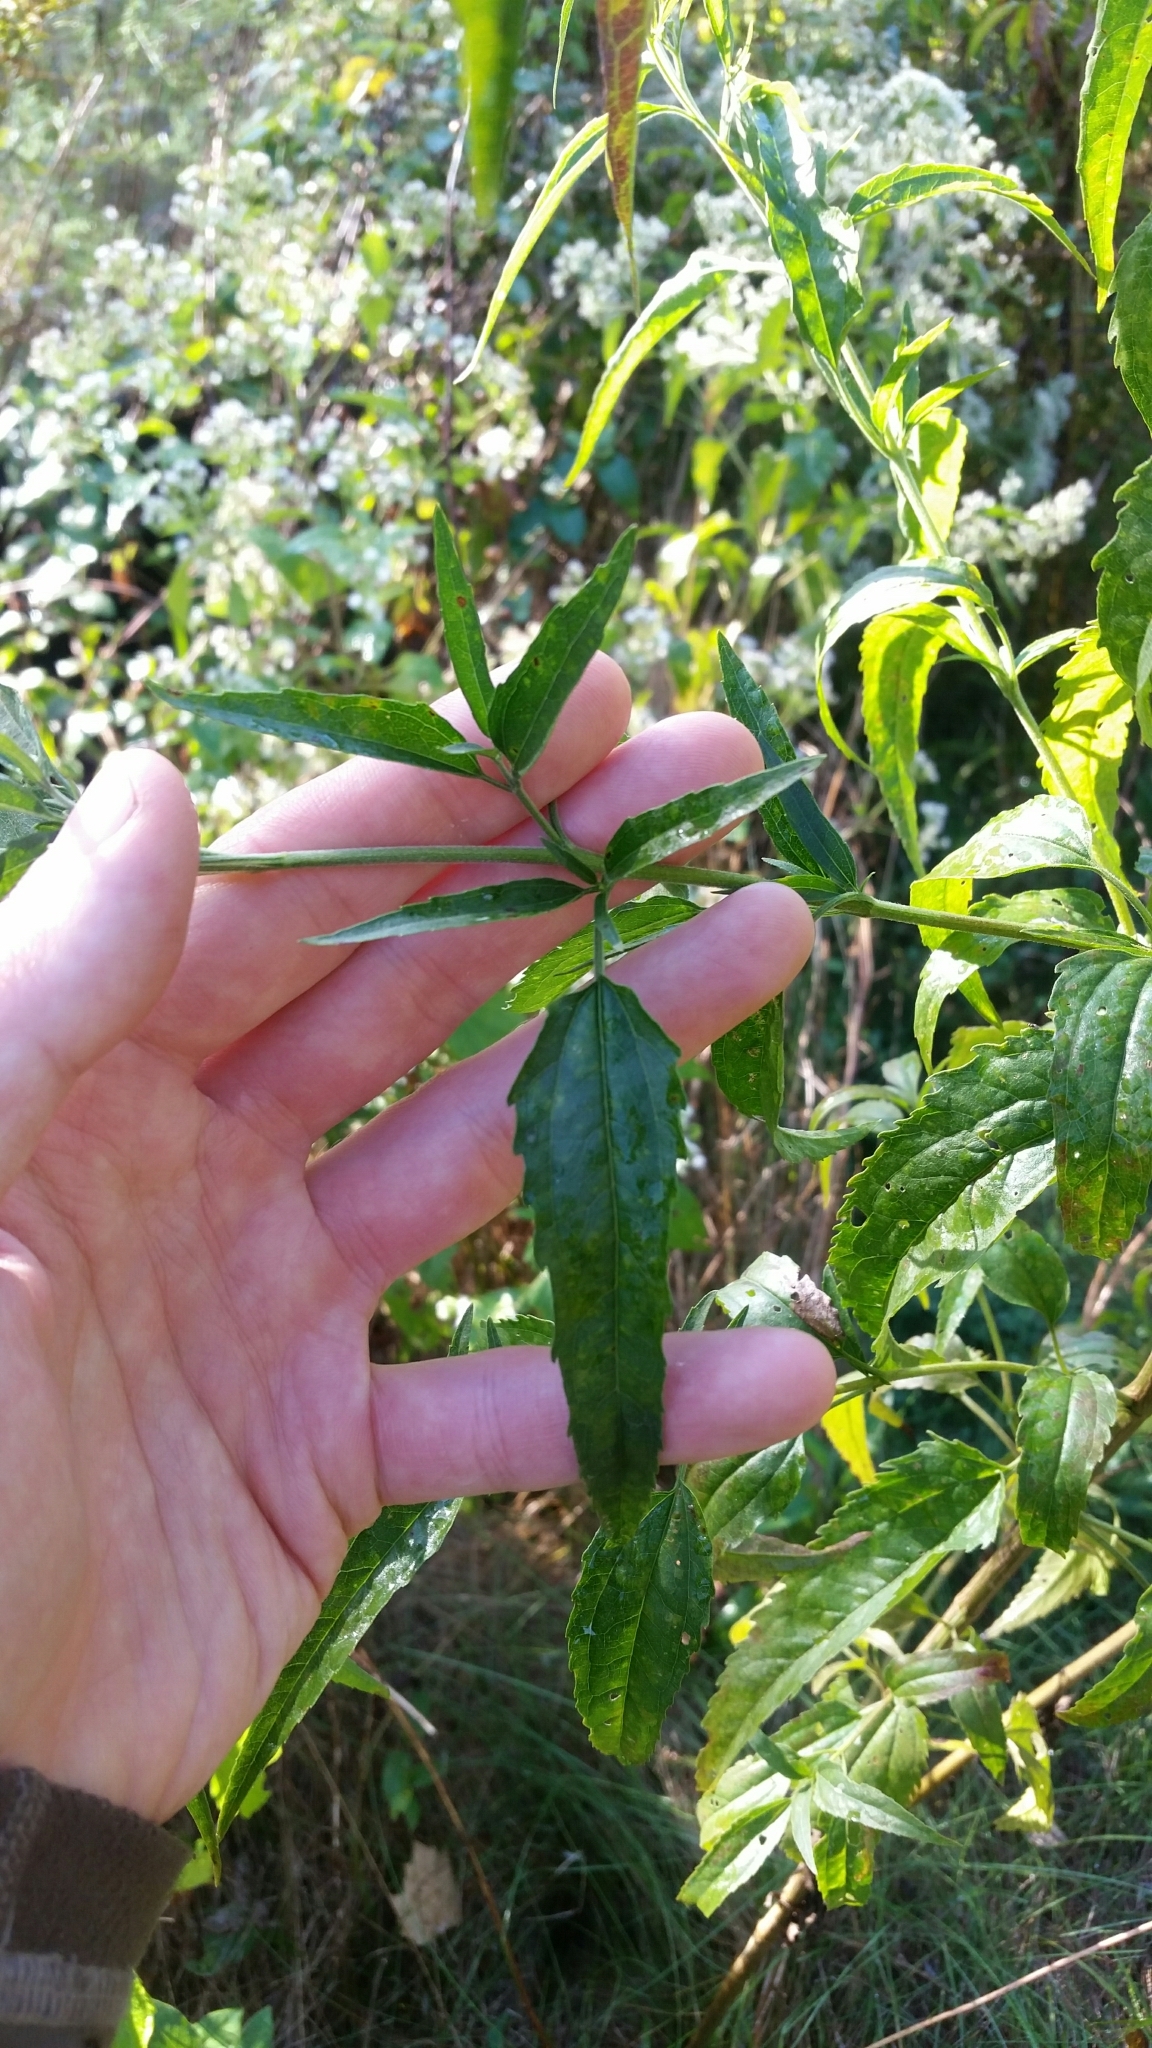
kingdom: Plantae
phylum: Tracheophyta
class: Magnoliopsida
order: Asterales
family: Asteraceae
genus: Eupatorium
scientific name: Eupatorium serotinum
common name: Late boneset
